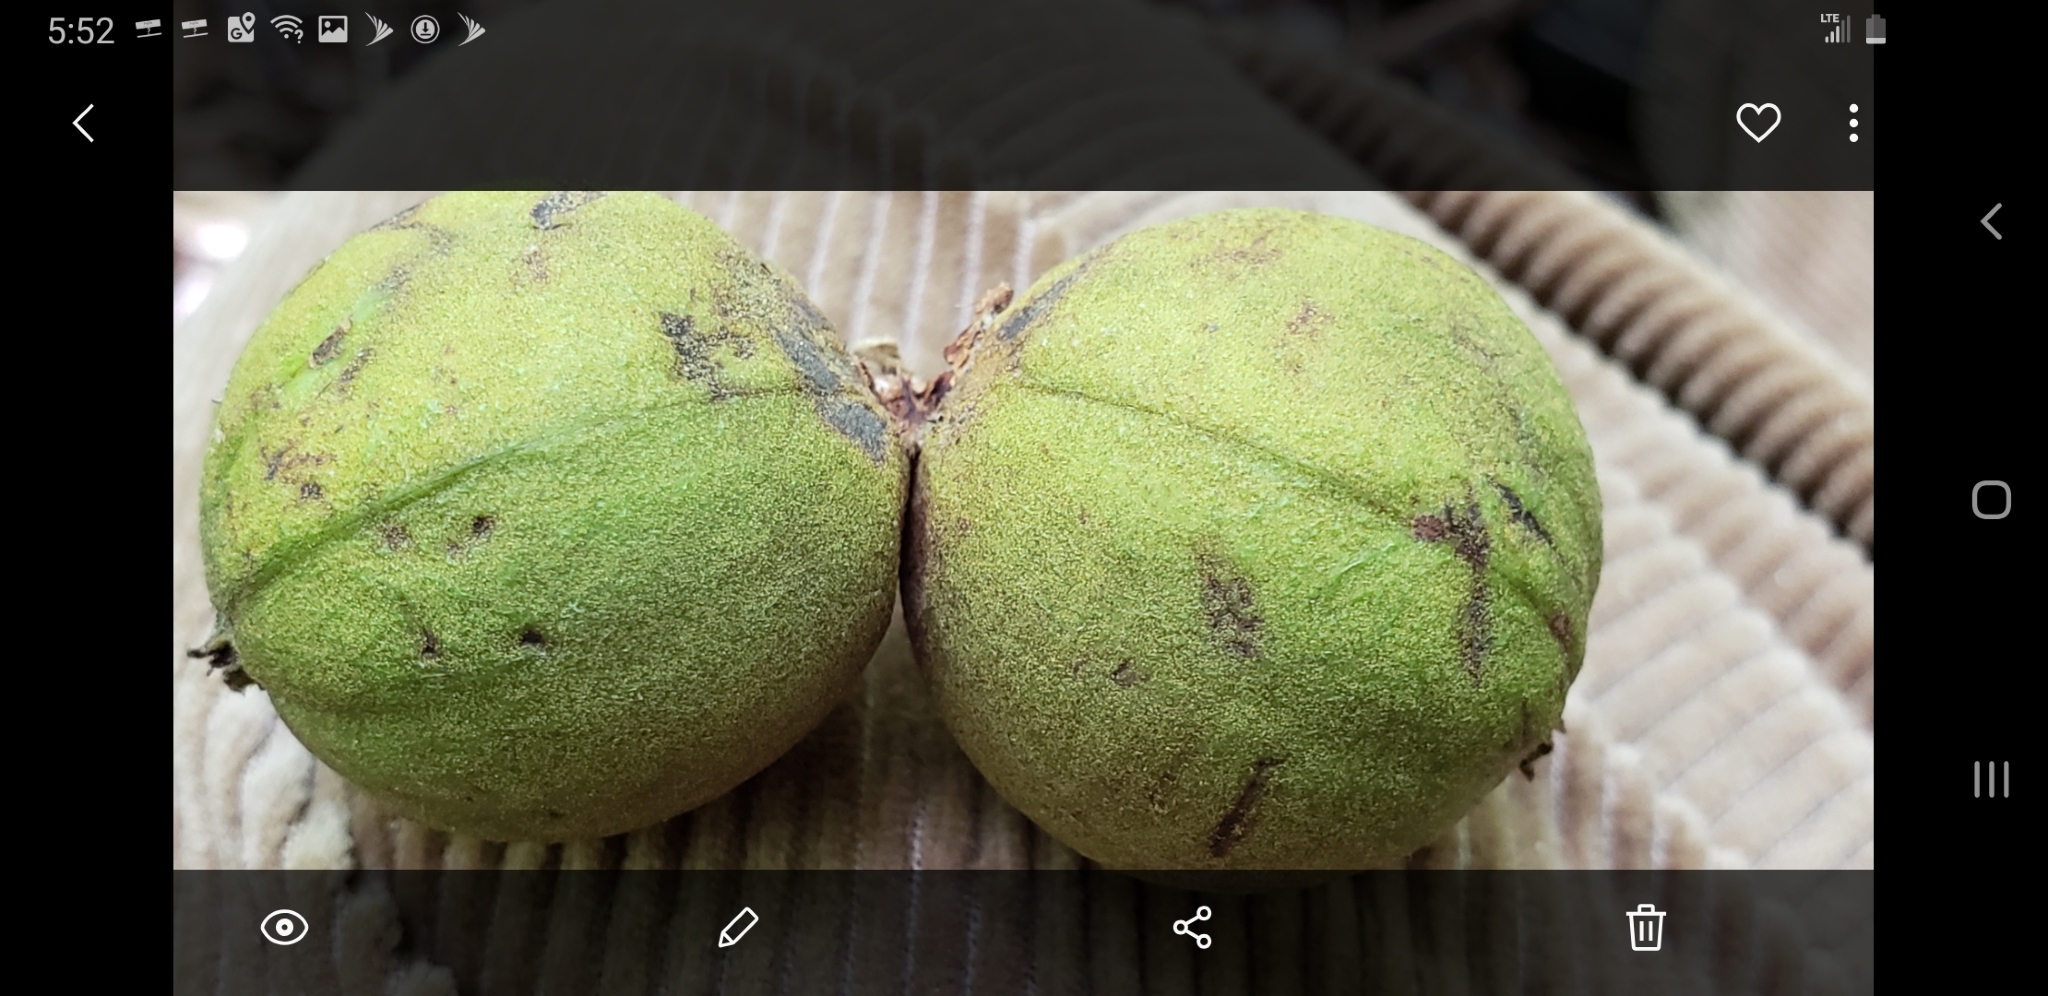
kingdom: Plantae
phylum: Tracheophyta
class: Magnoliopsida
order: Fagales
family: Juglandaceae
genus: Juglans
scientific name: Juglans nigra
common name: Black walnut
